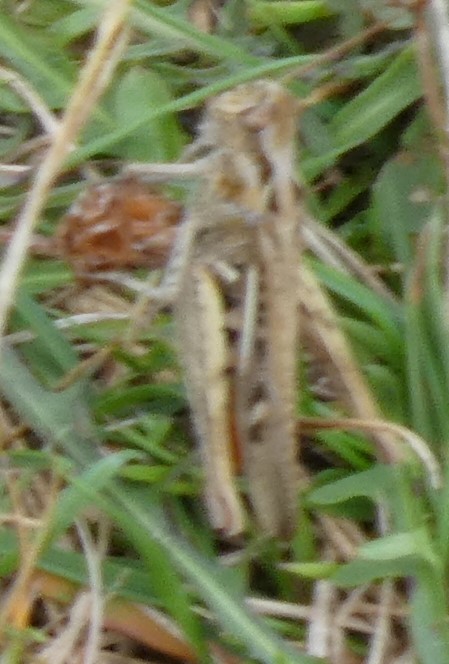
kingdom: Animalia
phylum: Arthropoda
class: Insecta
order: Orthoptera
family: Acrididae
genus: Chorthippus
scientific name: Chorthippus brunneus
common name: Field grasshopper
